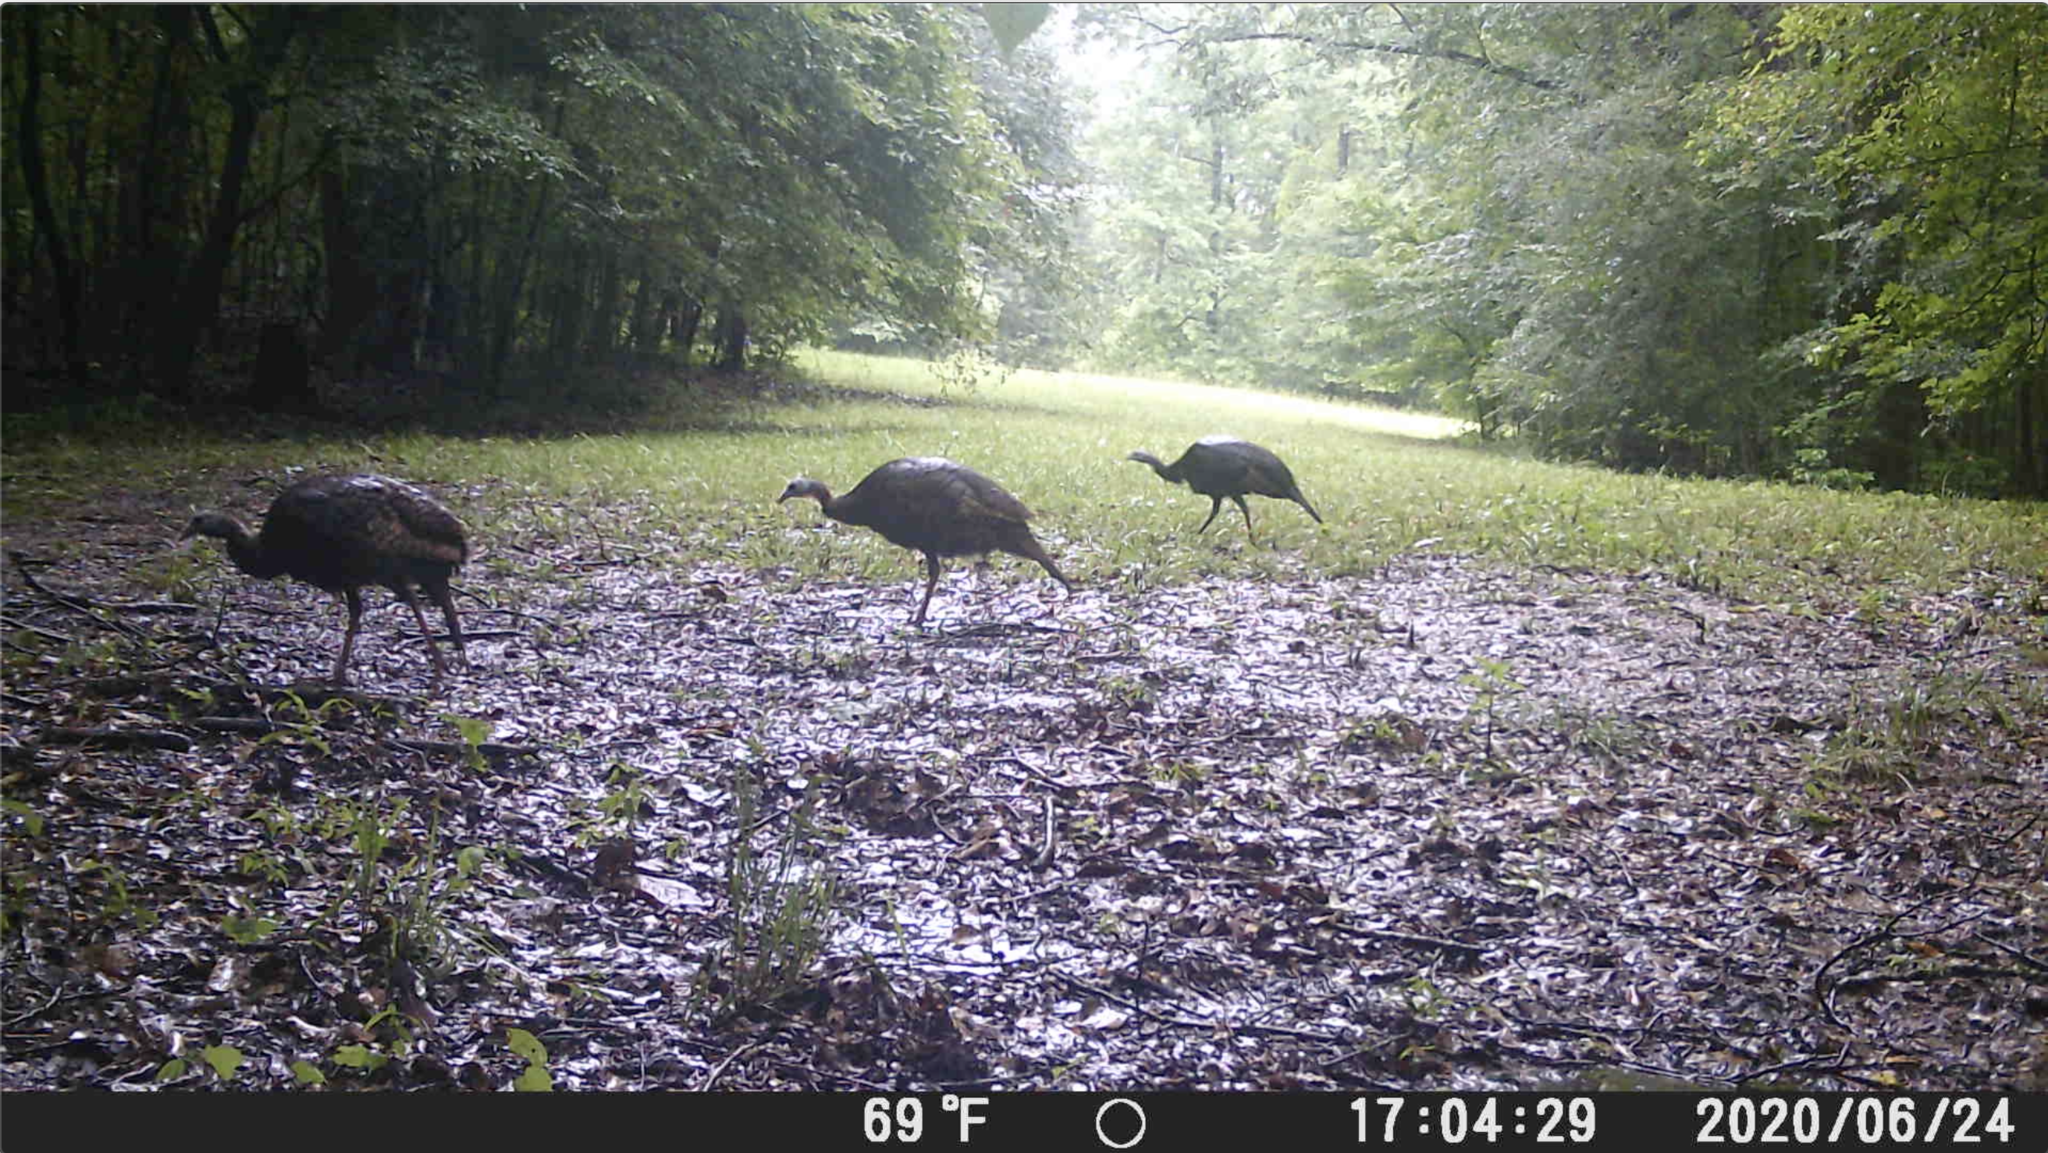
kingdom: Animalia
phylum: Chordata
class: Aves
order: Galliformes
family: Phasianidae
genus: Meleagris
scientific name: Meleagris gallopavo
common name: Wild turkey
